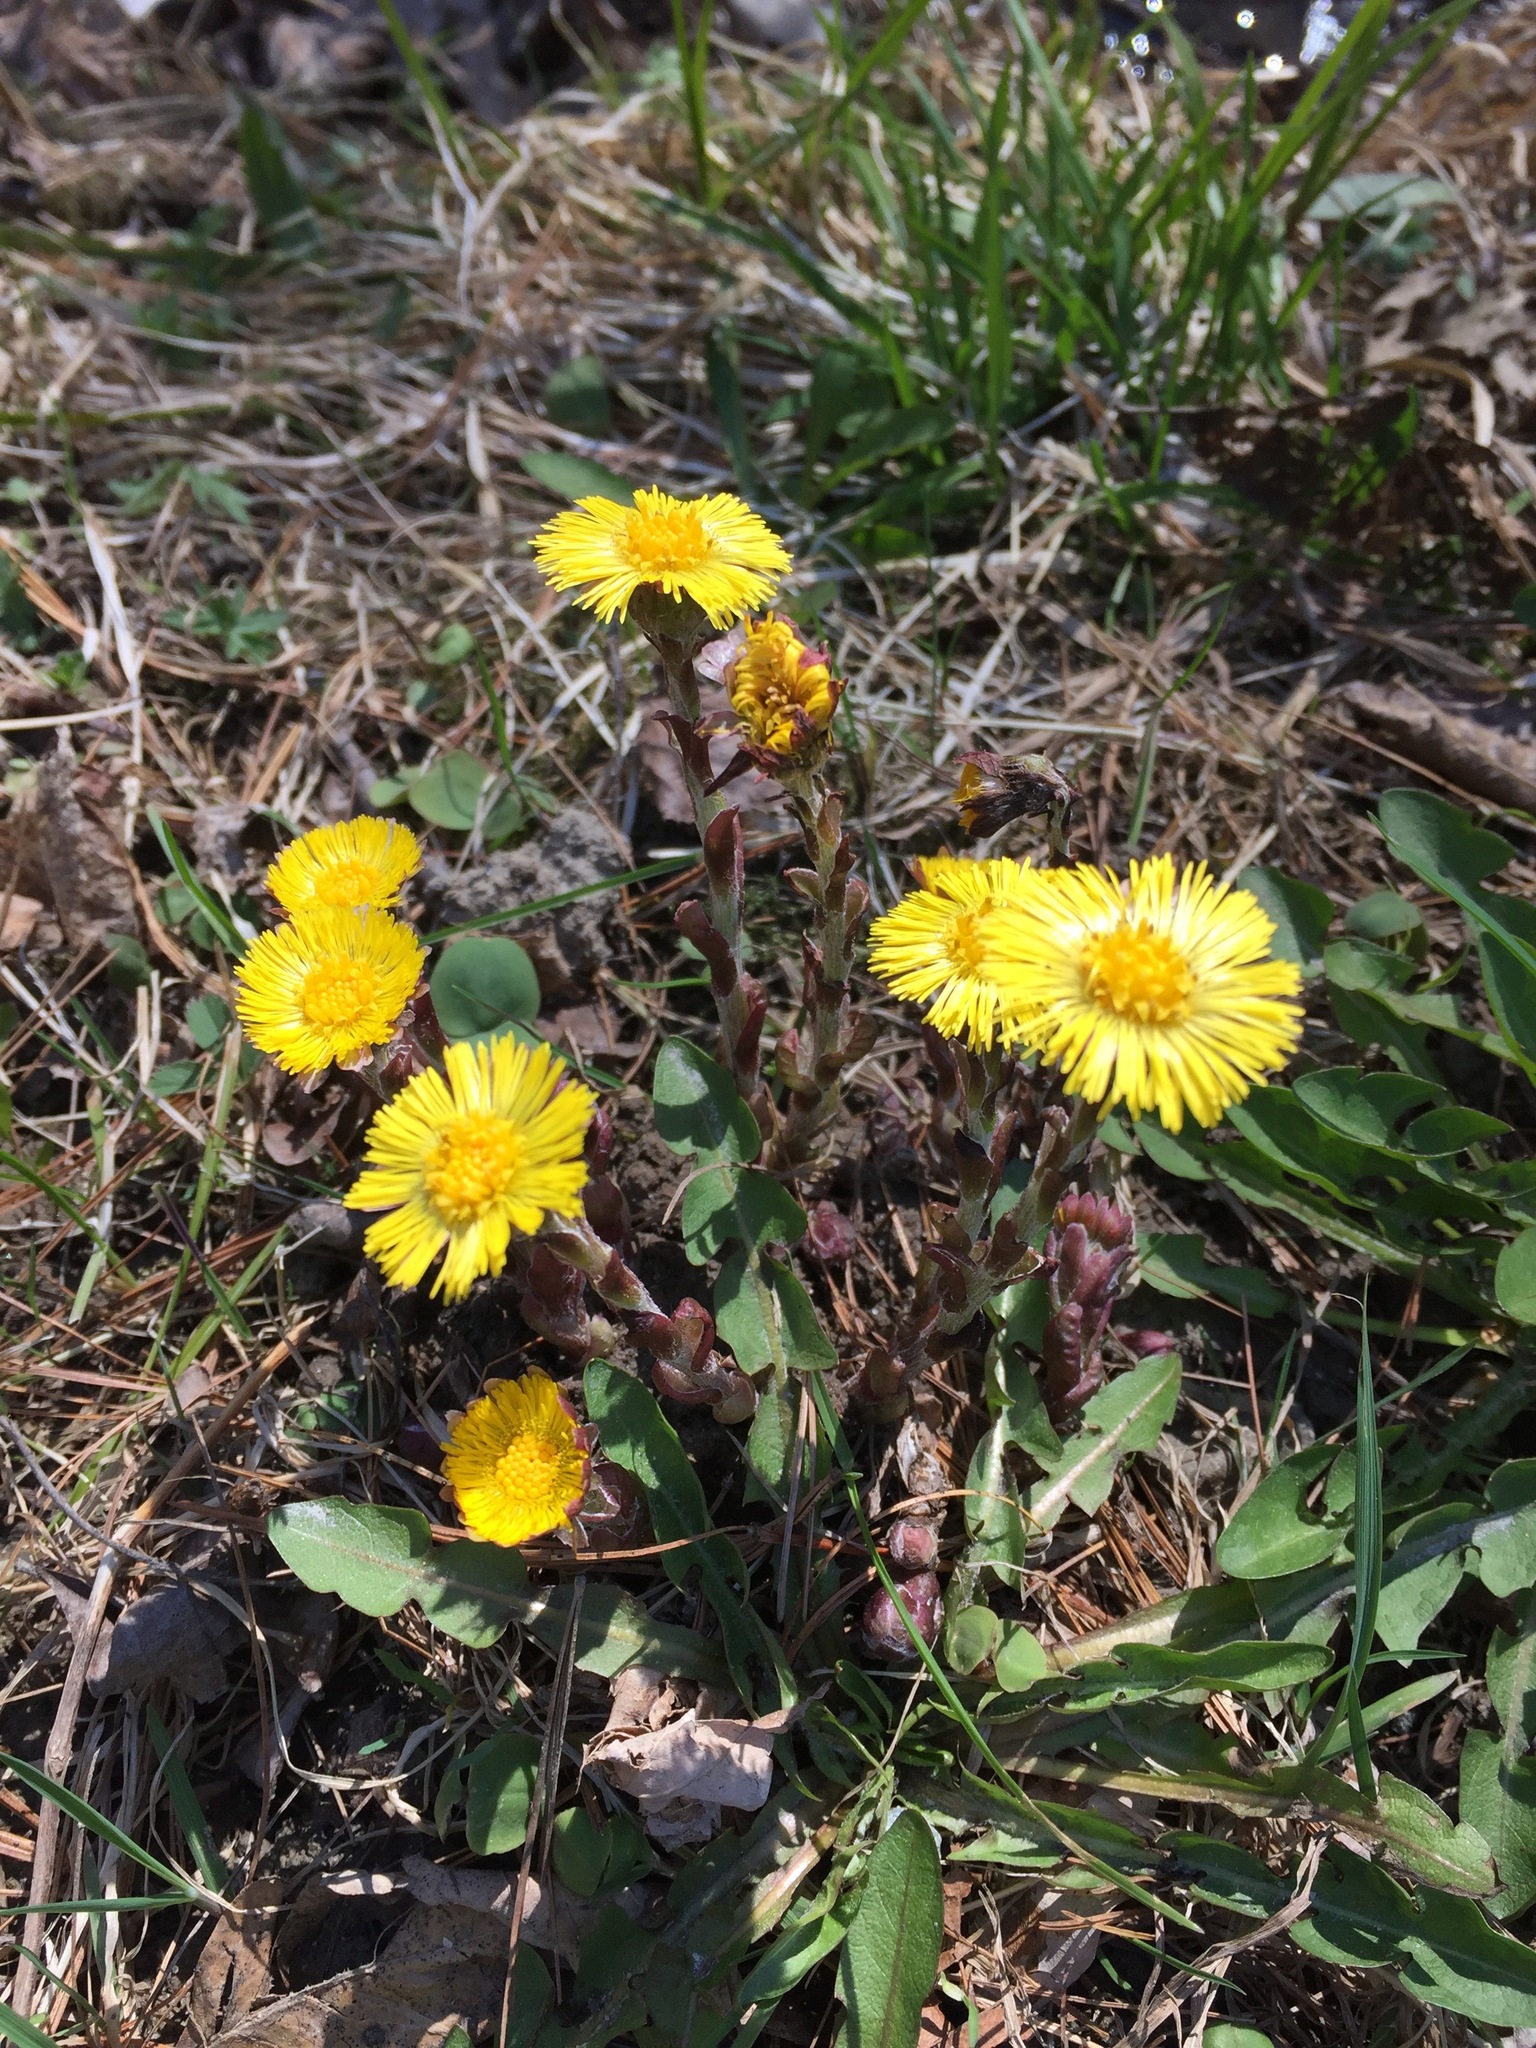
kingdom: Plantae
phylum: Tracheophyta
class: Magnoliopsida
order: Asterales
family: Asteraceae
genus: Tussilago
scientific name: Tussilago farfara
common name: Coltsfoot
